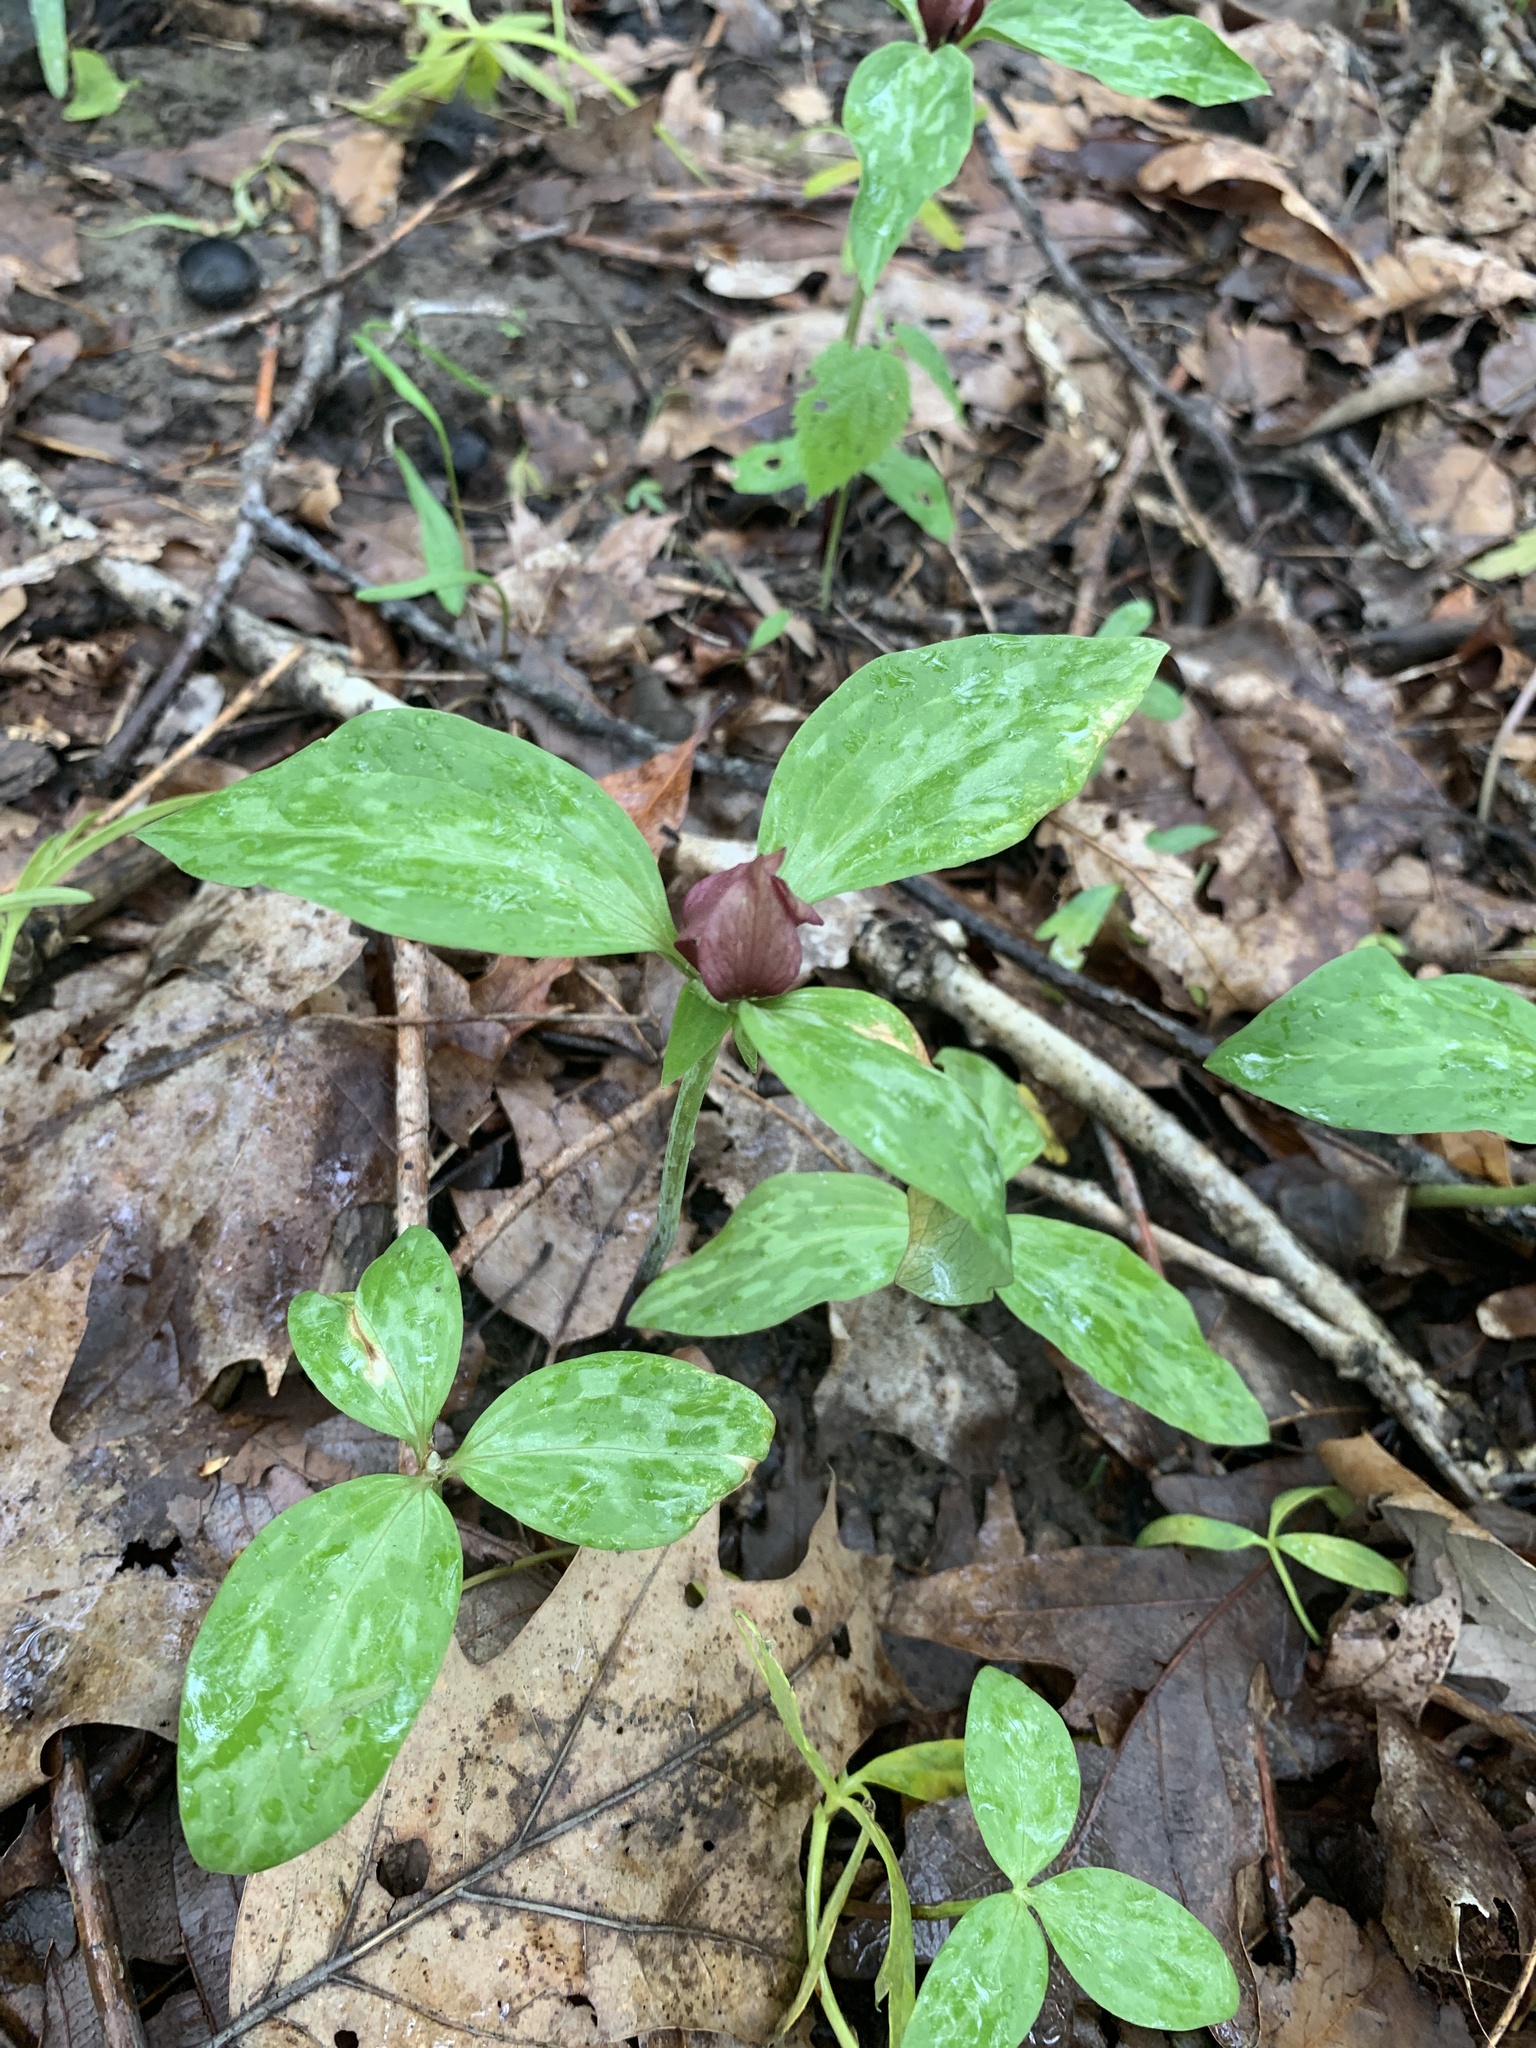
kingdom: Plantae
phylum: Tracheophyta
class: Liliopsida
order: Liliales
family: Melanthiaceae
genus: Trillium
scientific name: Trillium recurvatum
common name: Bloody butcher
